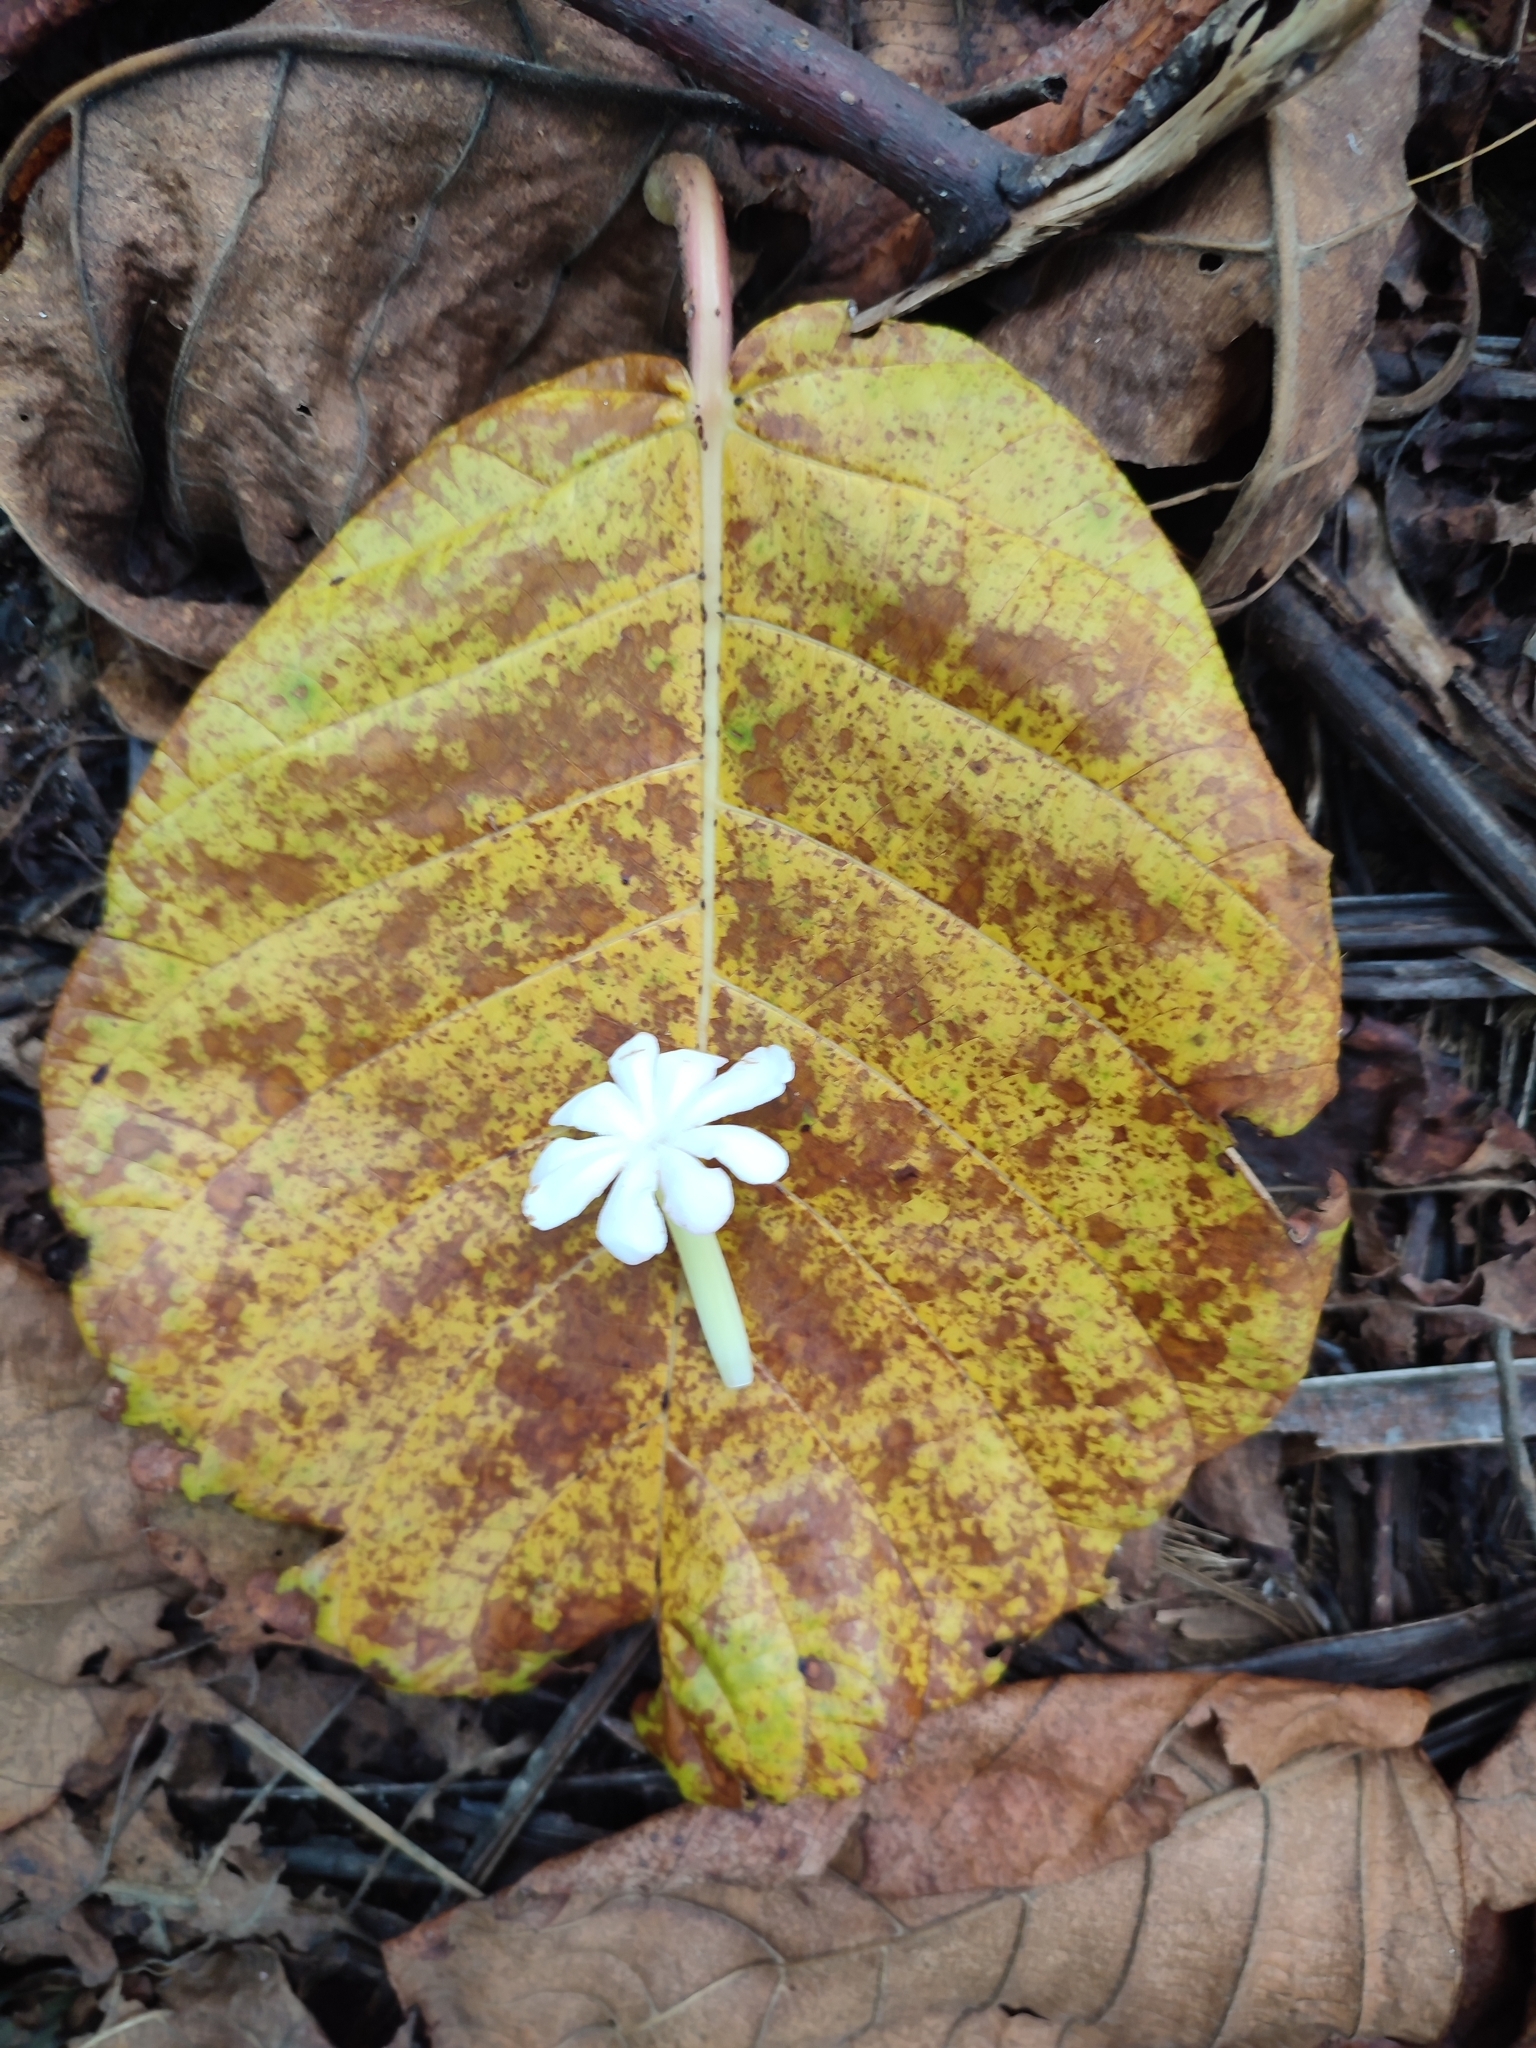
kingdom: Plantae
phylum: Tracheophyta
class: Magnoliopsida
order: Gentianales
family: Rubiaceae
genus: Guettarda
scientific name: Guettarda speciosa
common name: Sea randa
